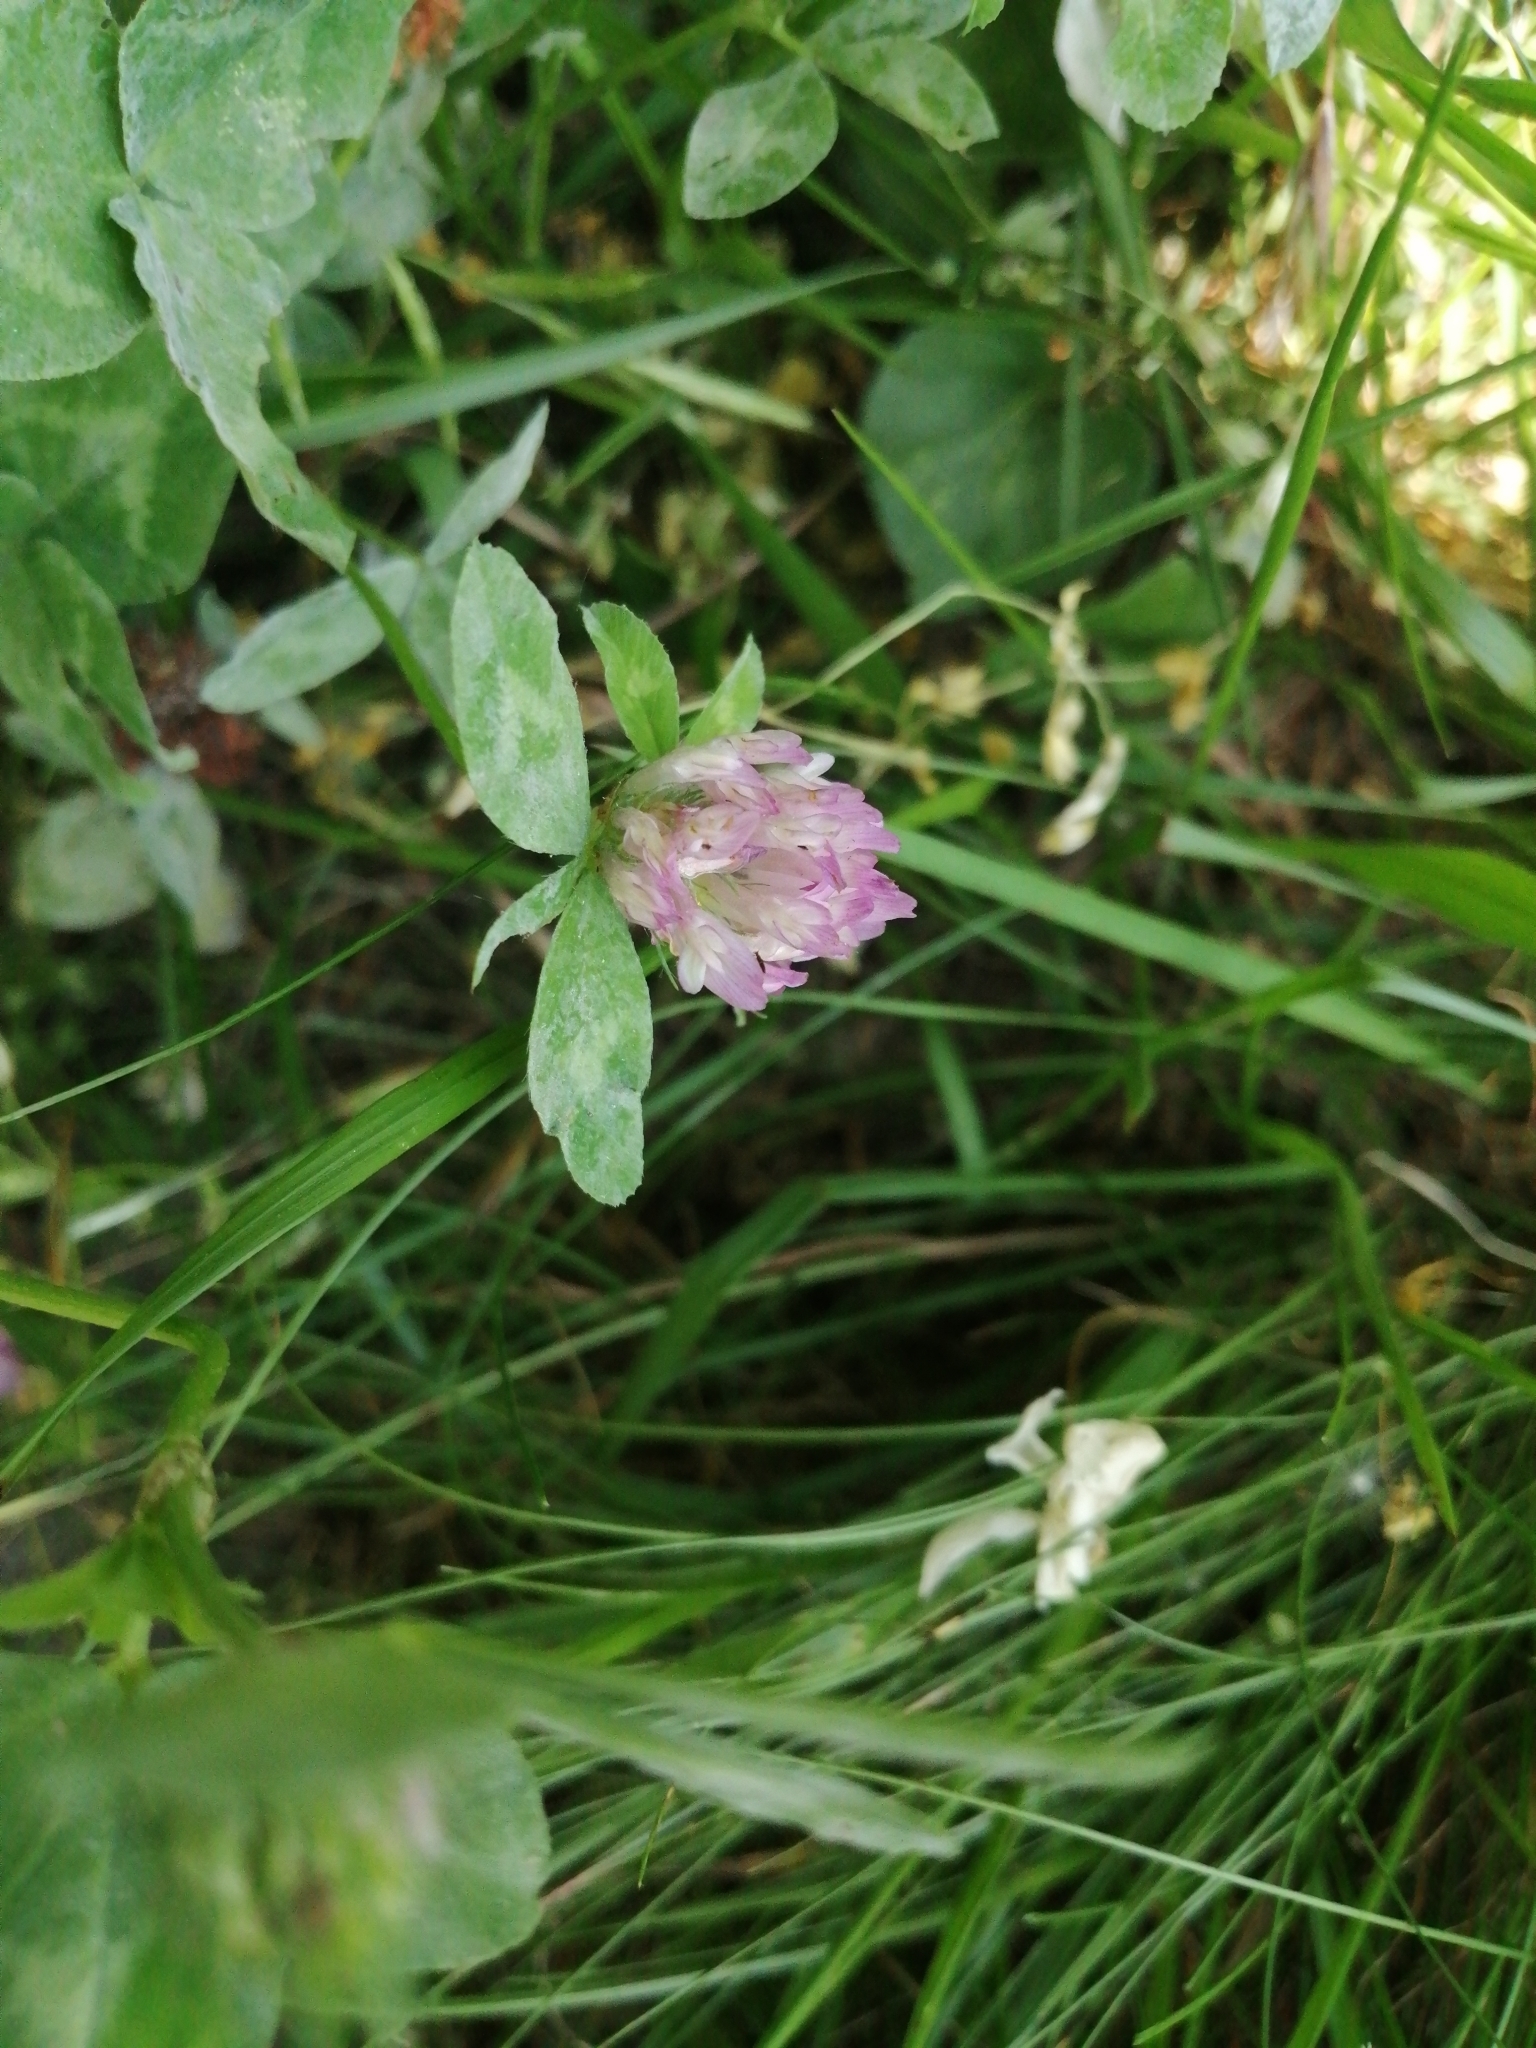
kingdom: Plantae
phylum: Tracheophyta
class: Magnoliopsida
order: Fabales
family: Fabaceae
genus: Trifolium
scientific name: Trifolium pratense
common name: Red clover
